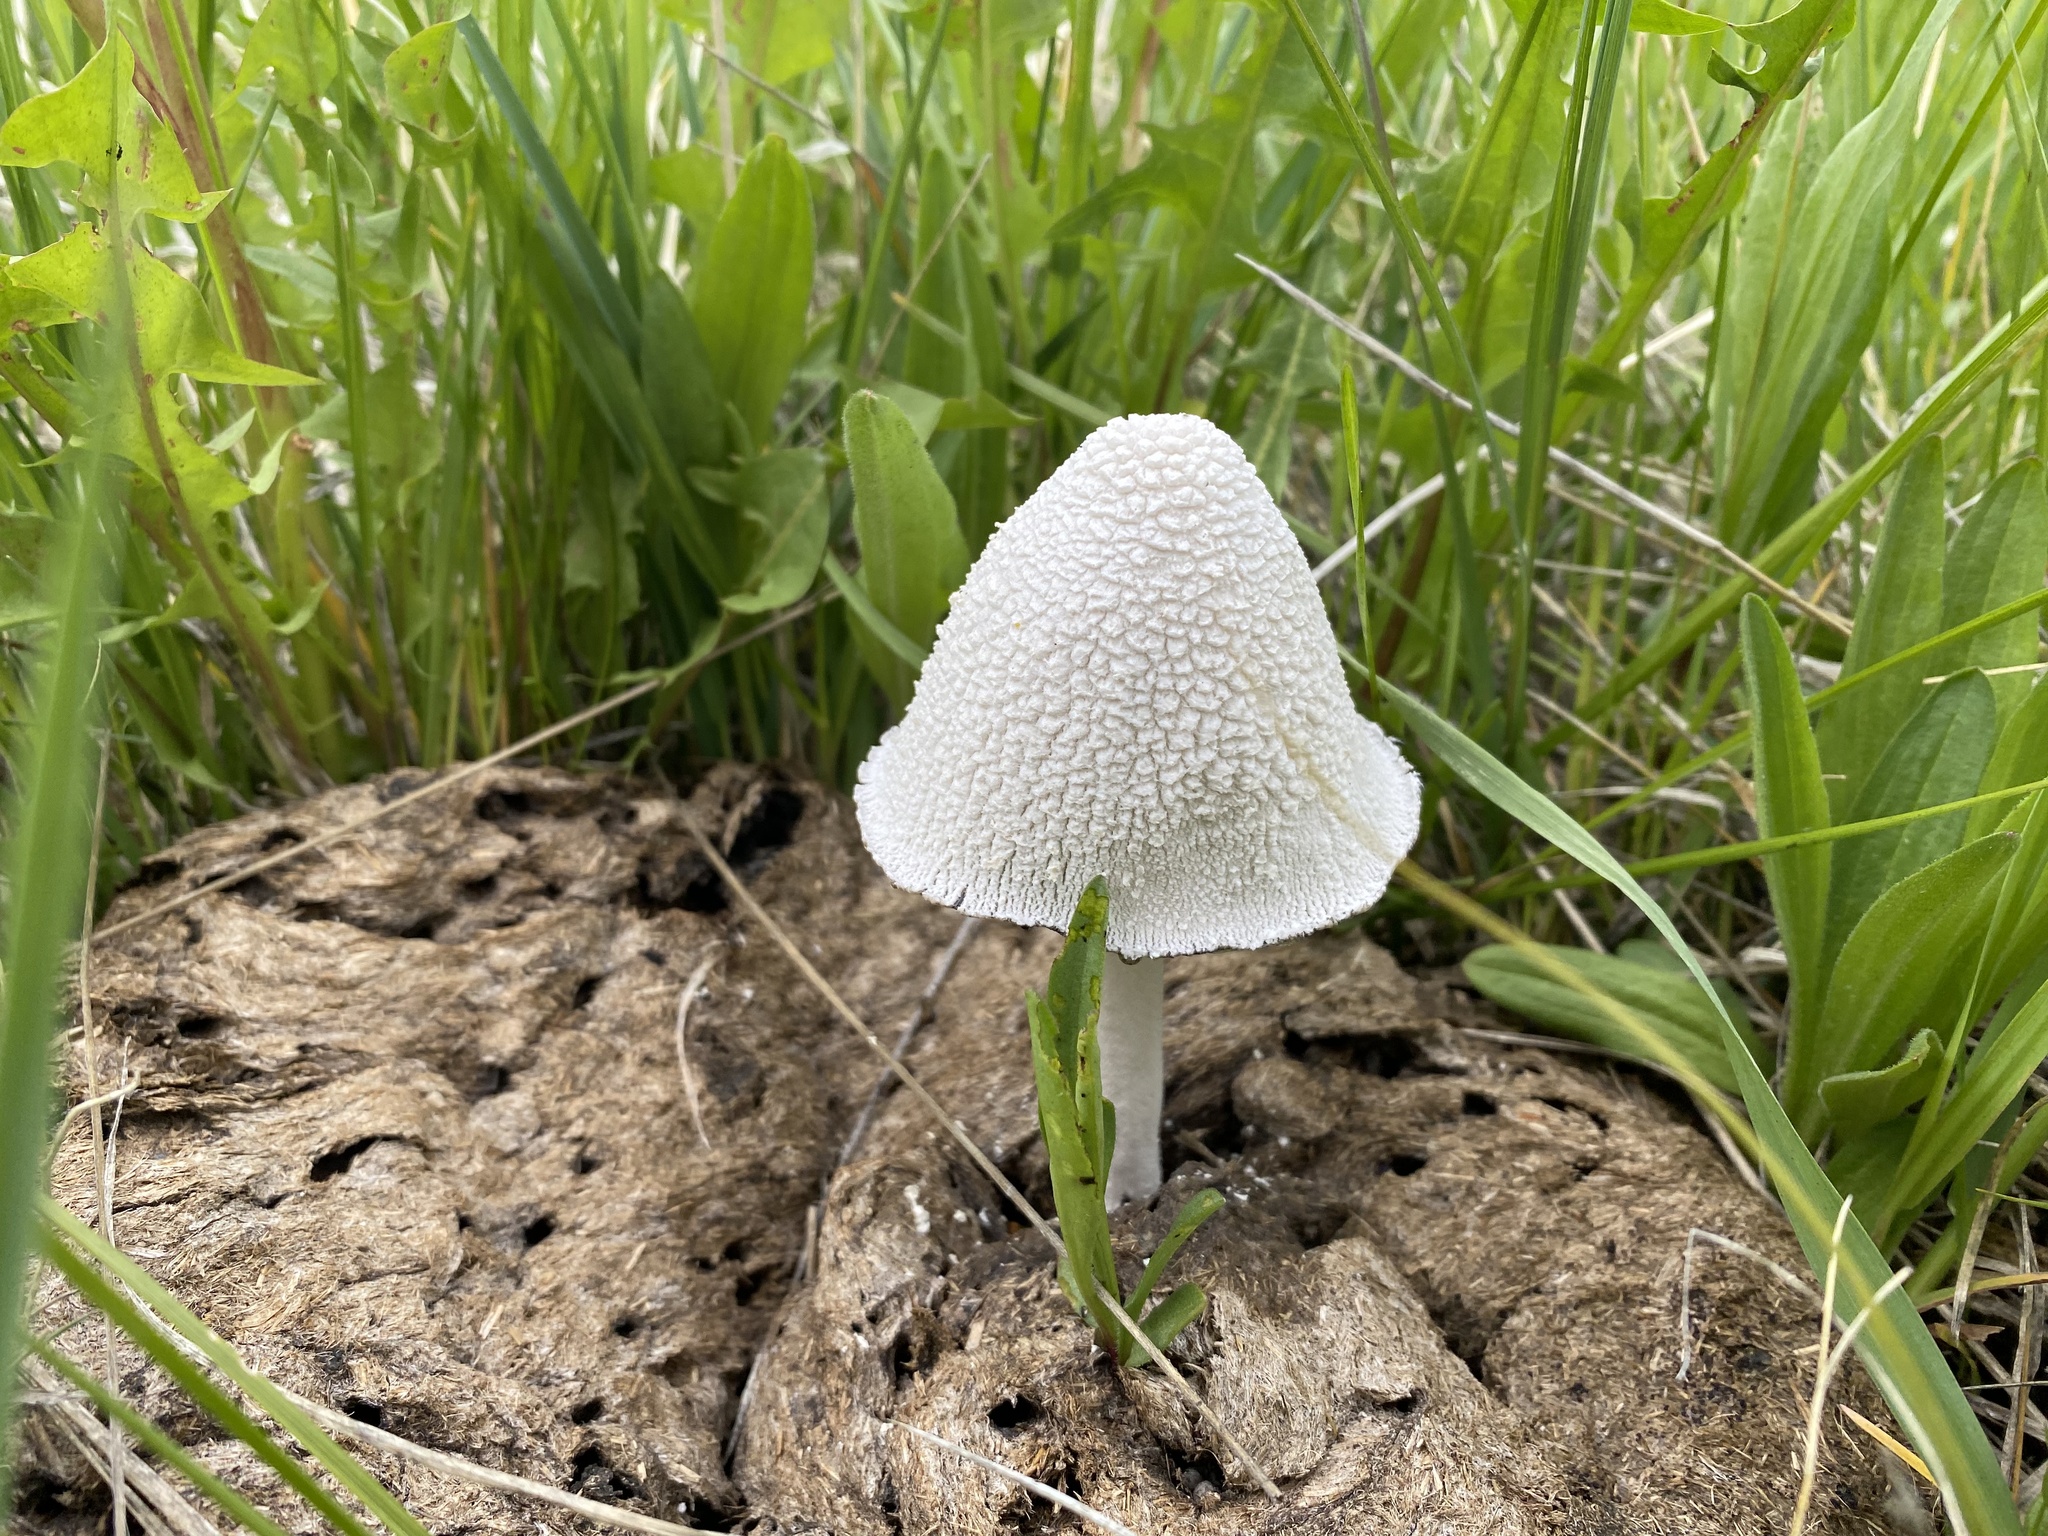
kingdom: Fungi
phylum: Basidiomycota
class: Agaricomycetes
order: Agaricales
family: Psathyrellaceae
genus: Coprinopsis
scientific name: Coprinopsis nivea
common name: Snowy inkcap
